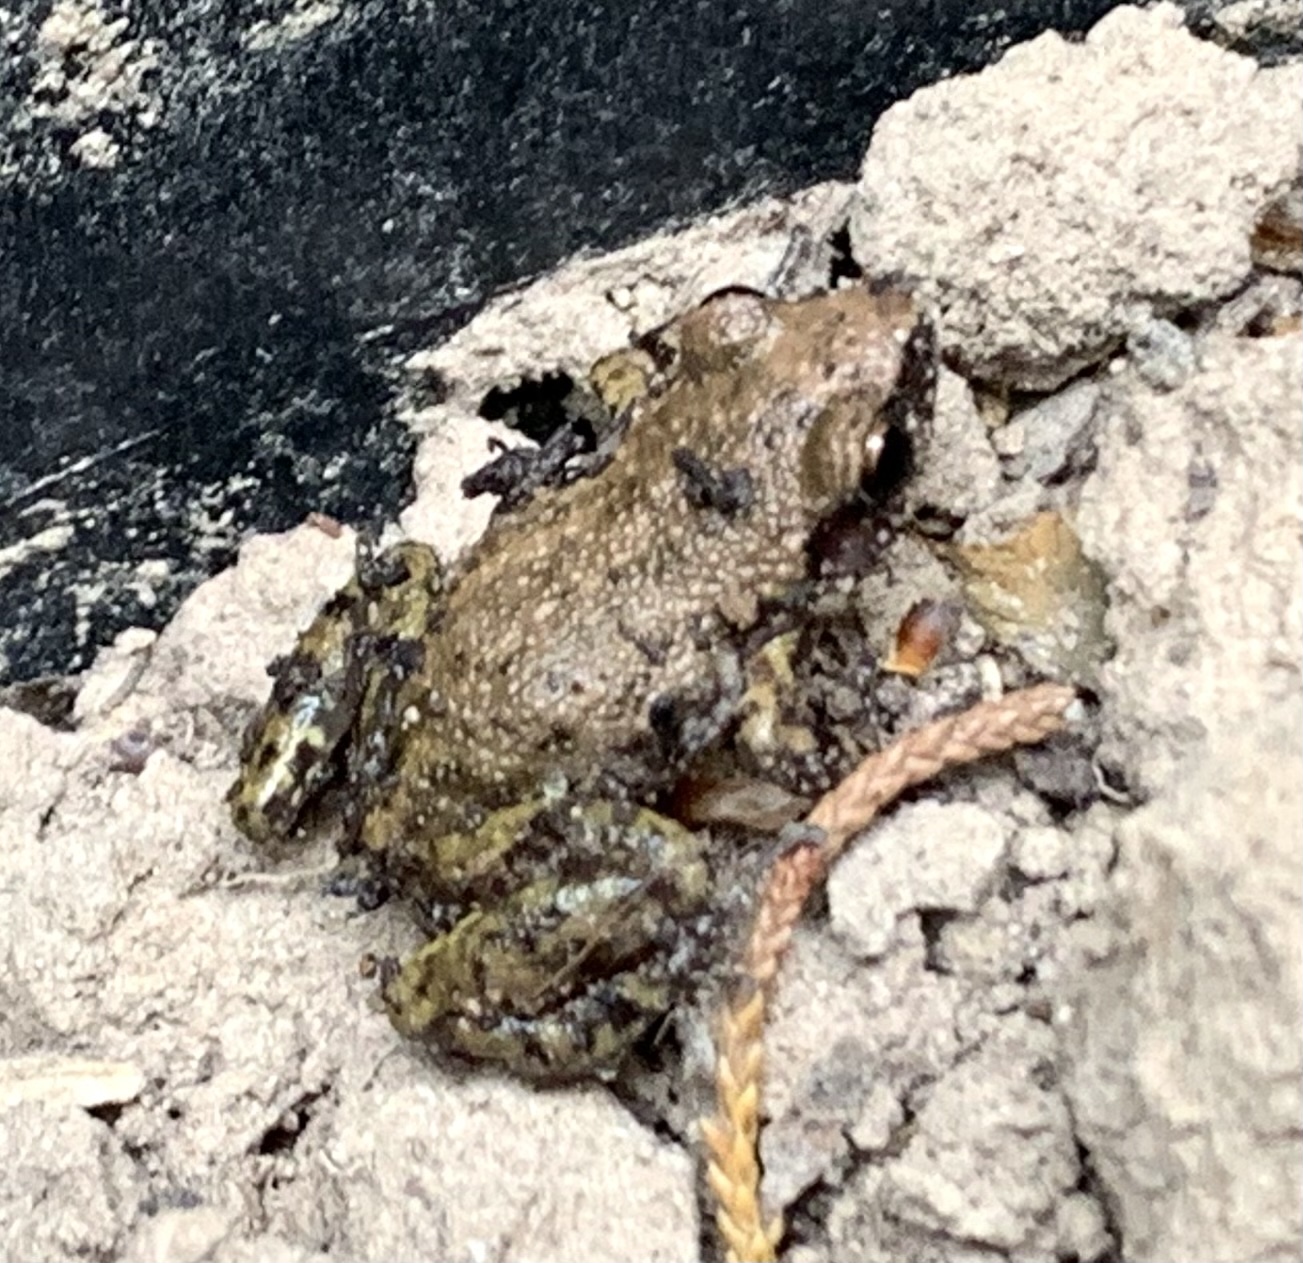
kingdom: Animalia
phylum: Chordata
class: Amphibia
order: Anura
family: Eleutherodactylidae
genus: Eleutherodactylus
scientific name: Eleutherodactylus campi
